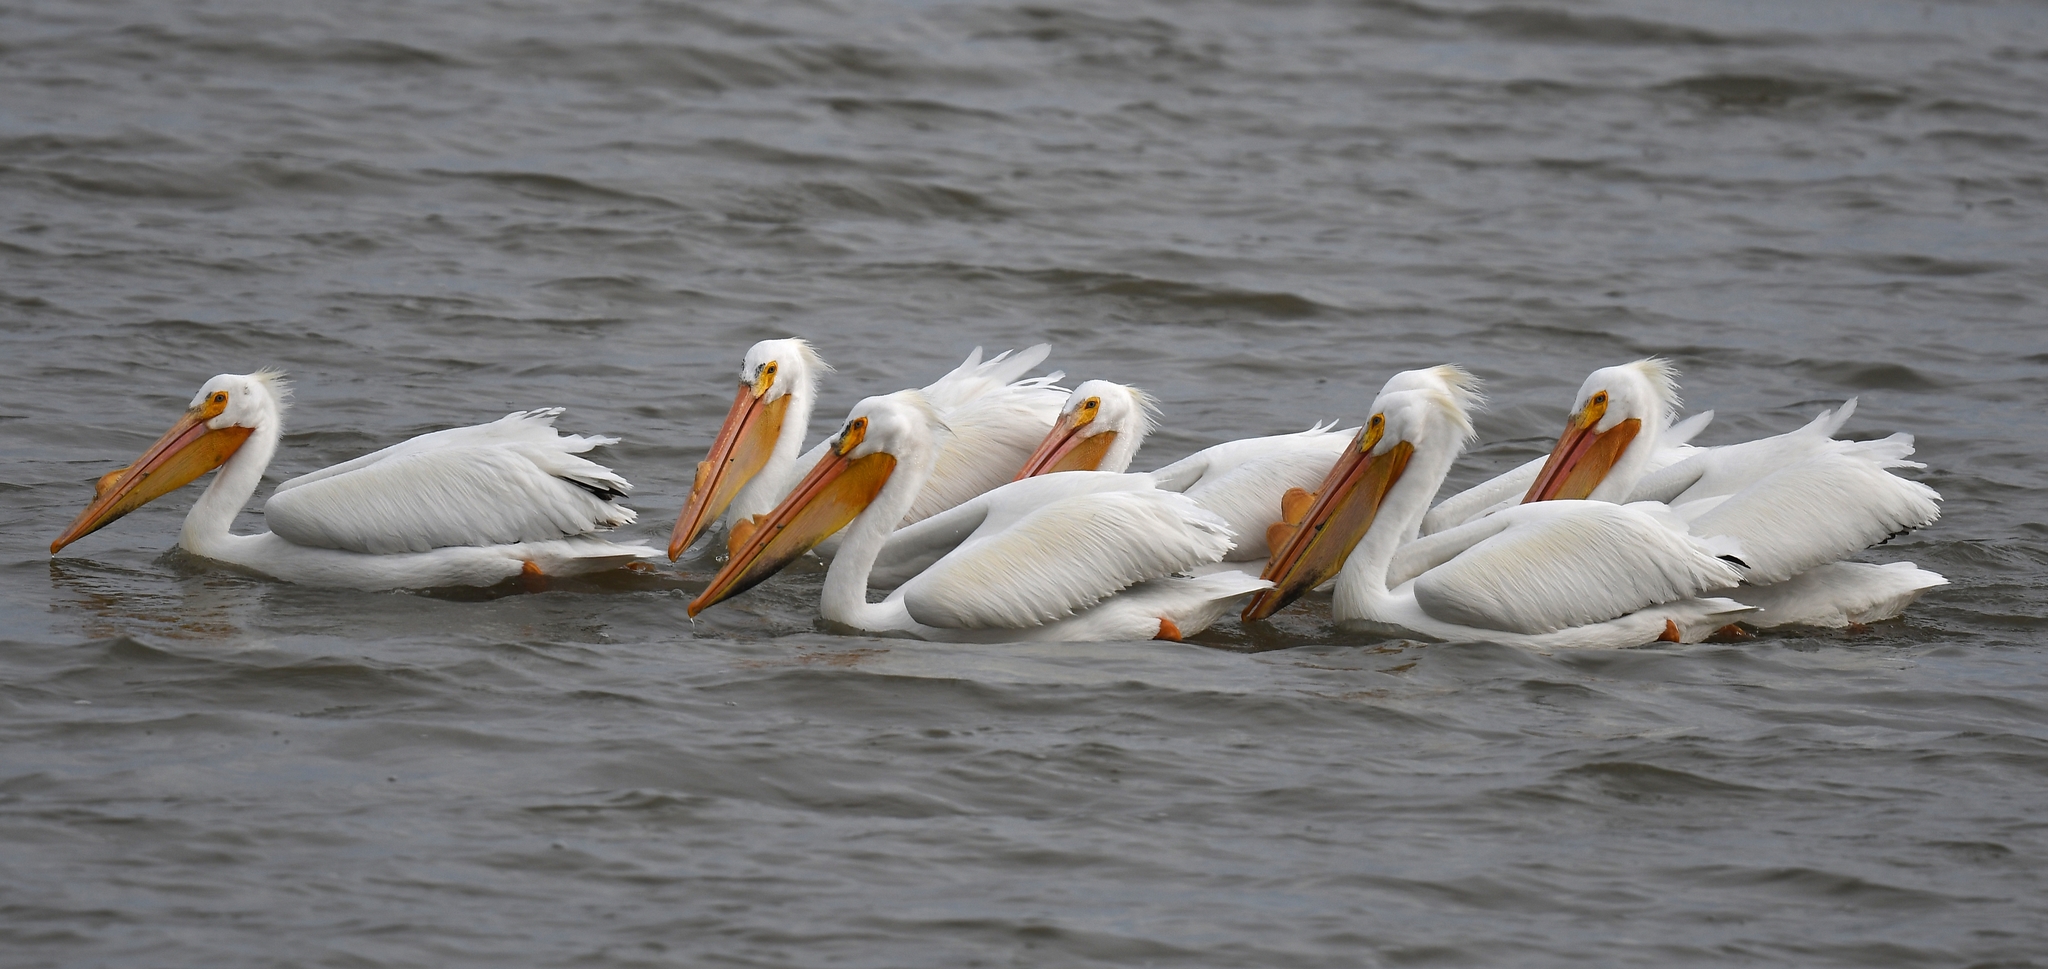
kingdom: Animalia
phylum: Chordata
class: Aves
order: Pelecaniformes
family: Pelecanidae
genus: Pelecanus
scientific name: Pelecanus erythrorhynchos
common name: American white pelican
